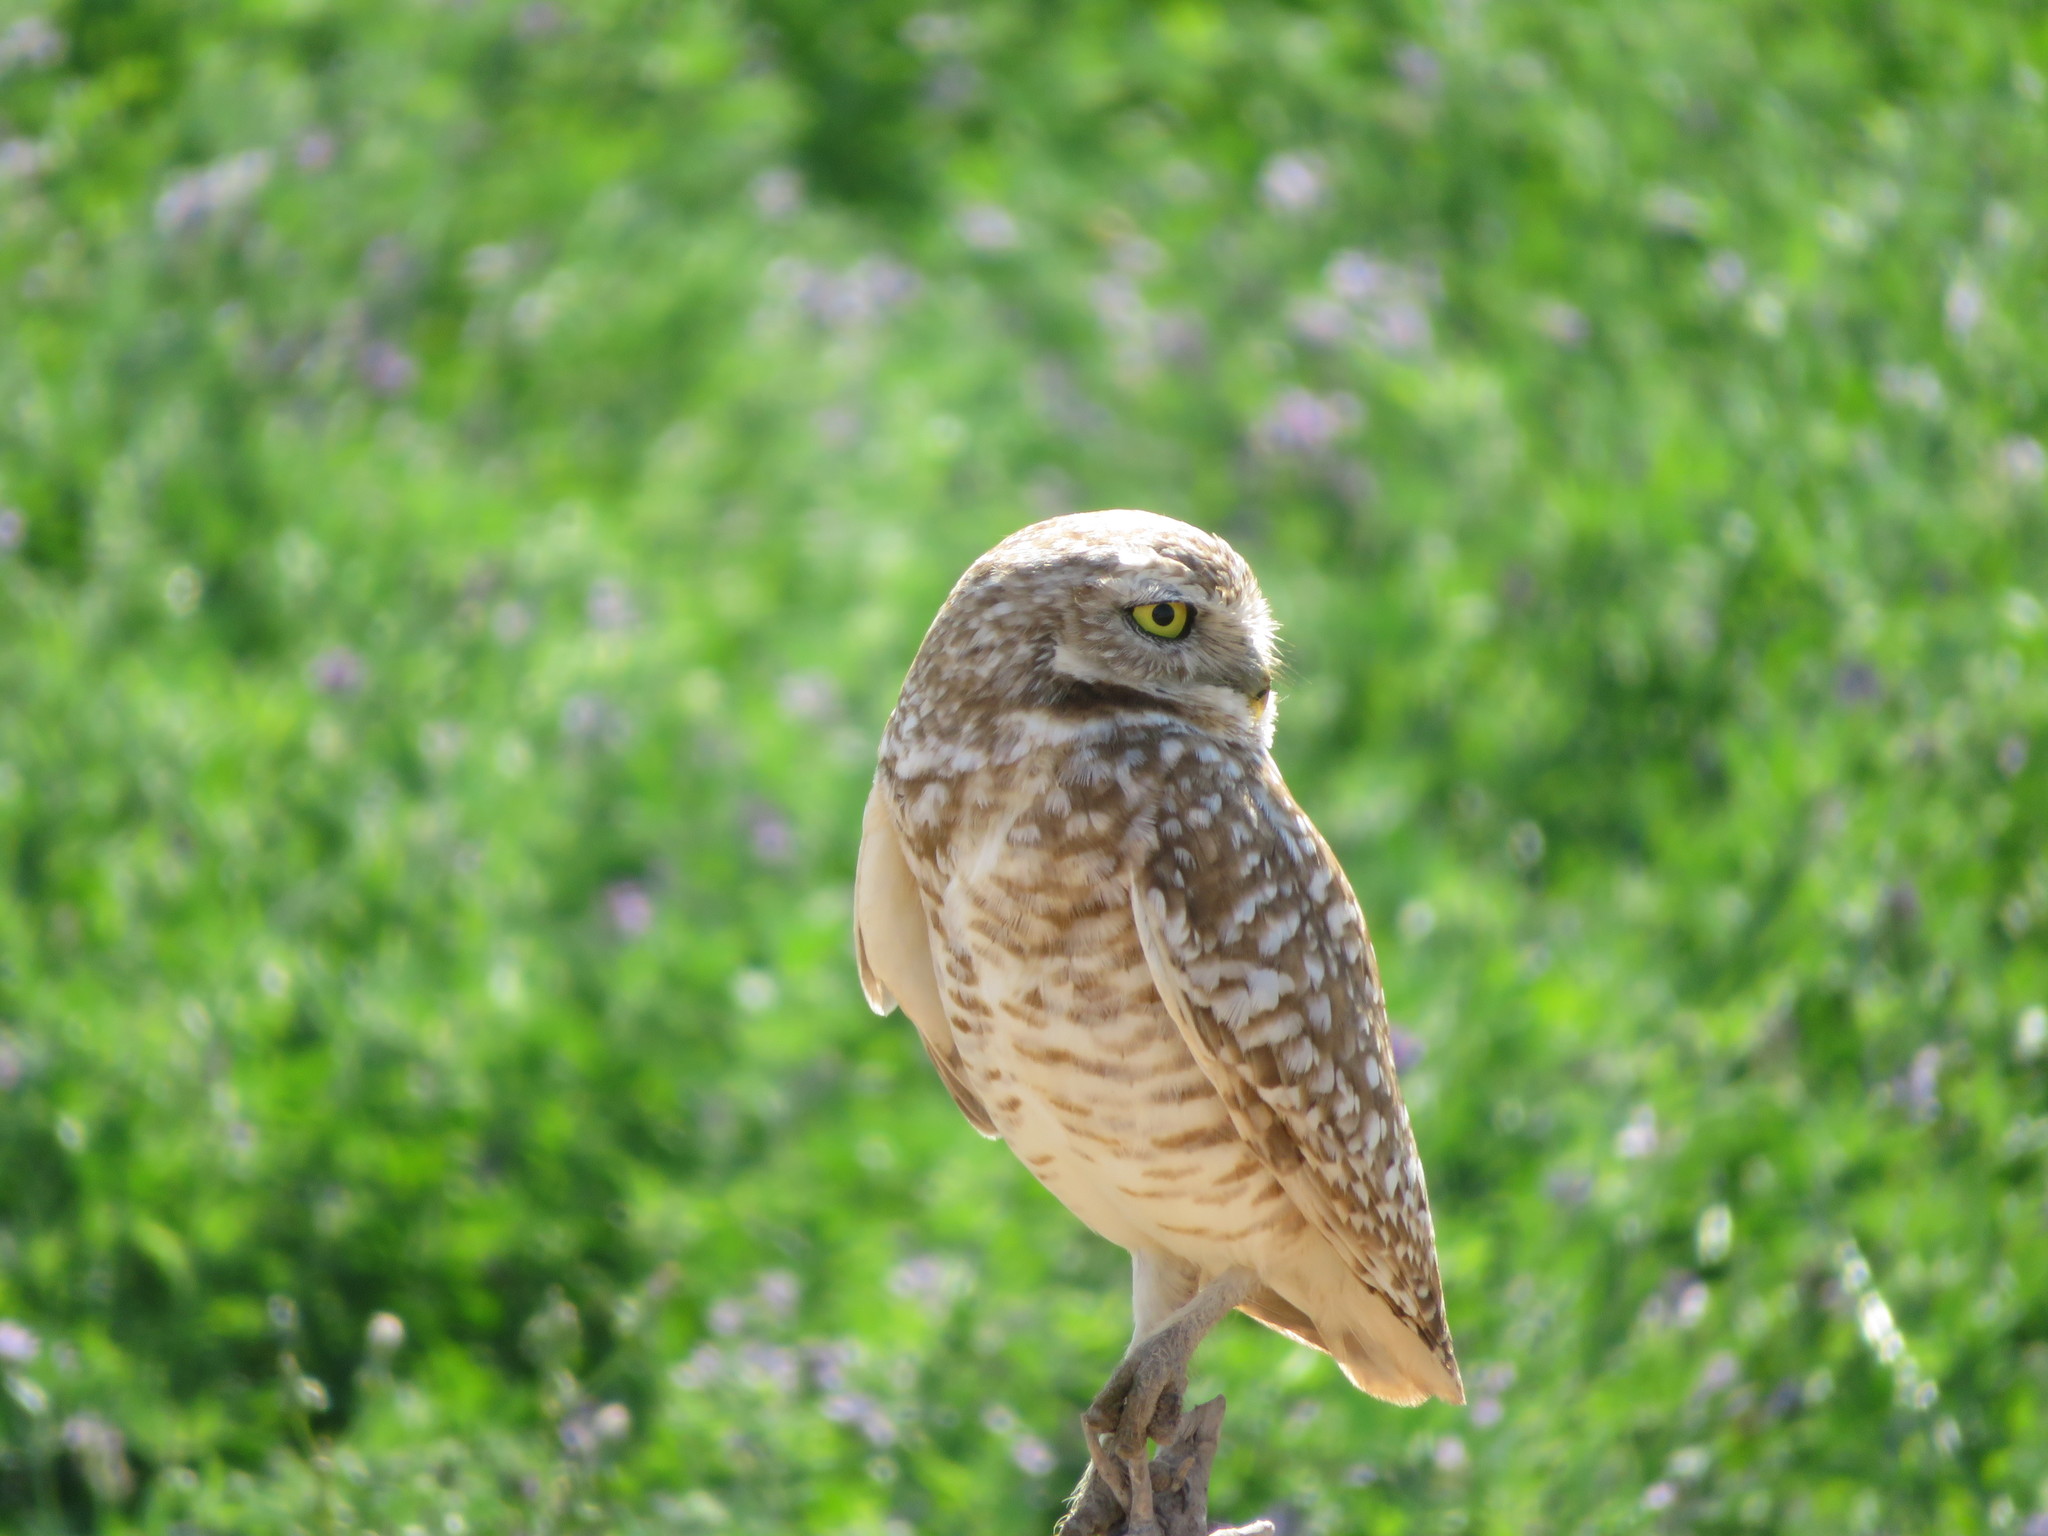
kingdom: Animalia
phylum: Chordata
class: Aves
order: Strigiformes
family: Strigidae
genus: Athene
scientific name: Athene cunicularia
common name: Burrowing owl
